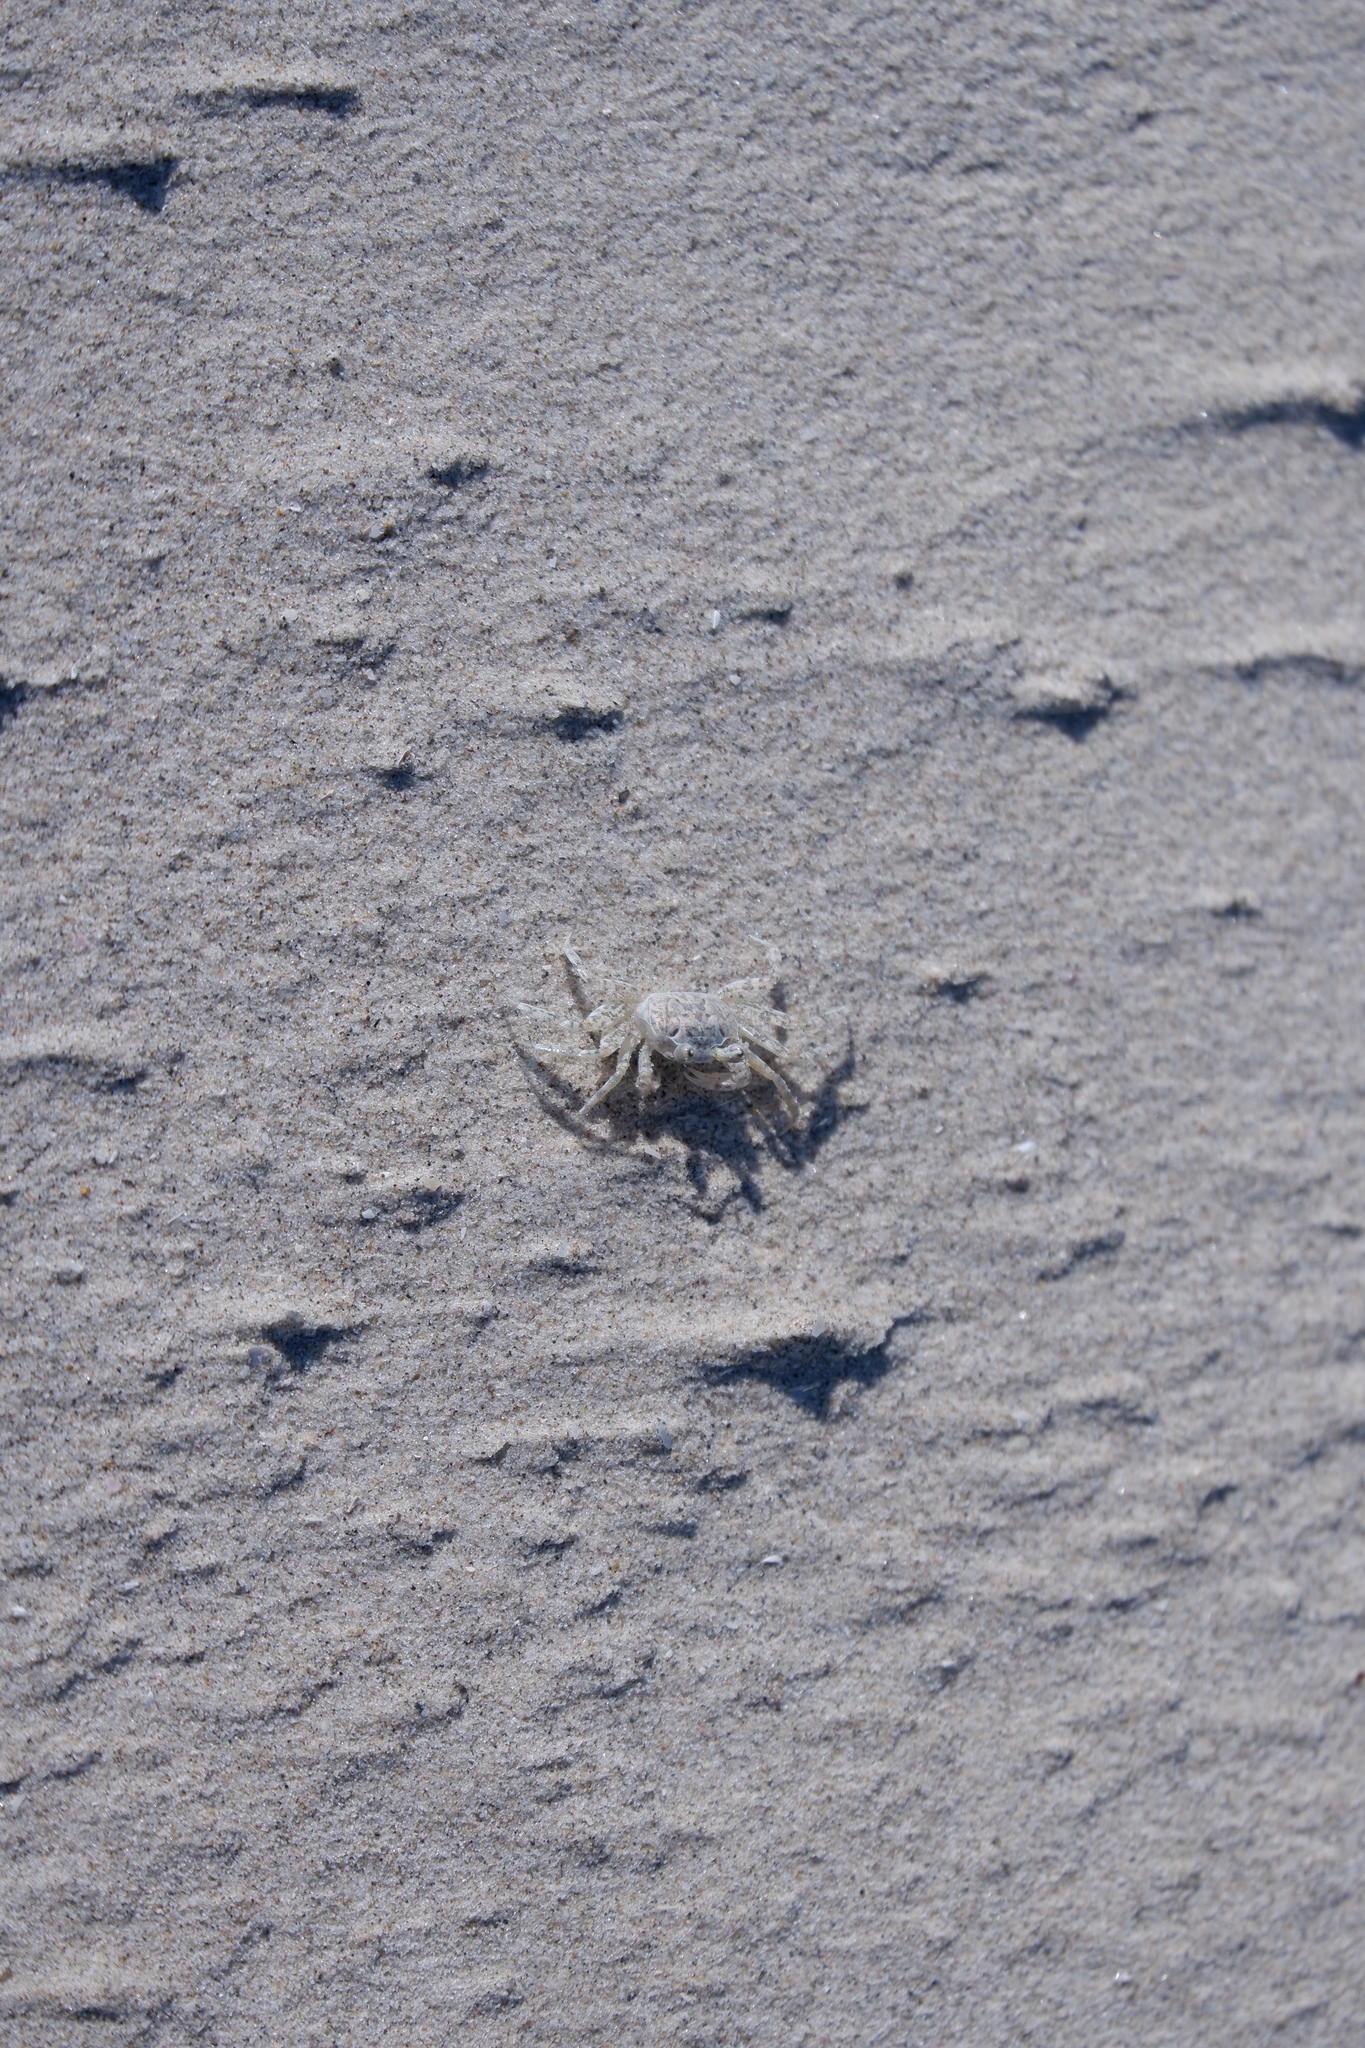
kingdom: Animalia
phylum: Arthropoda
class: Malacostraca
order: Decapoda
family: Ocypodidae
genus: Ocypode
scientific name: Ocypode quadrata
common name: Ghost crab
